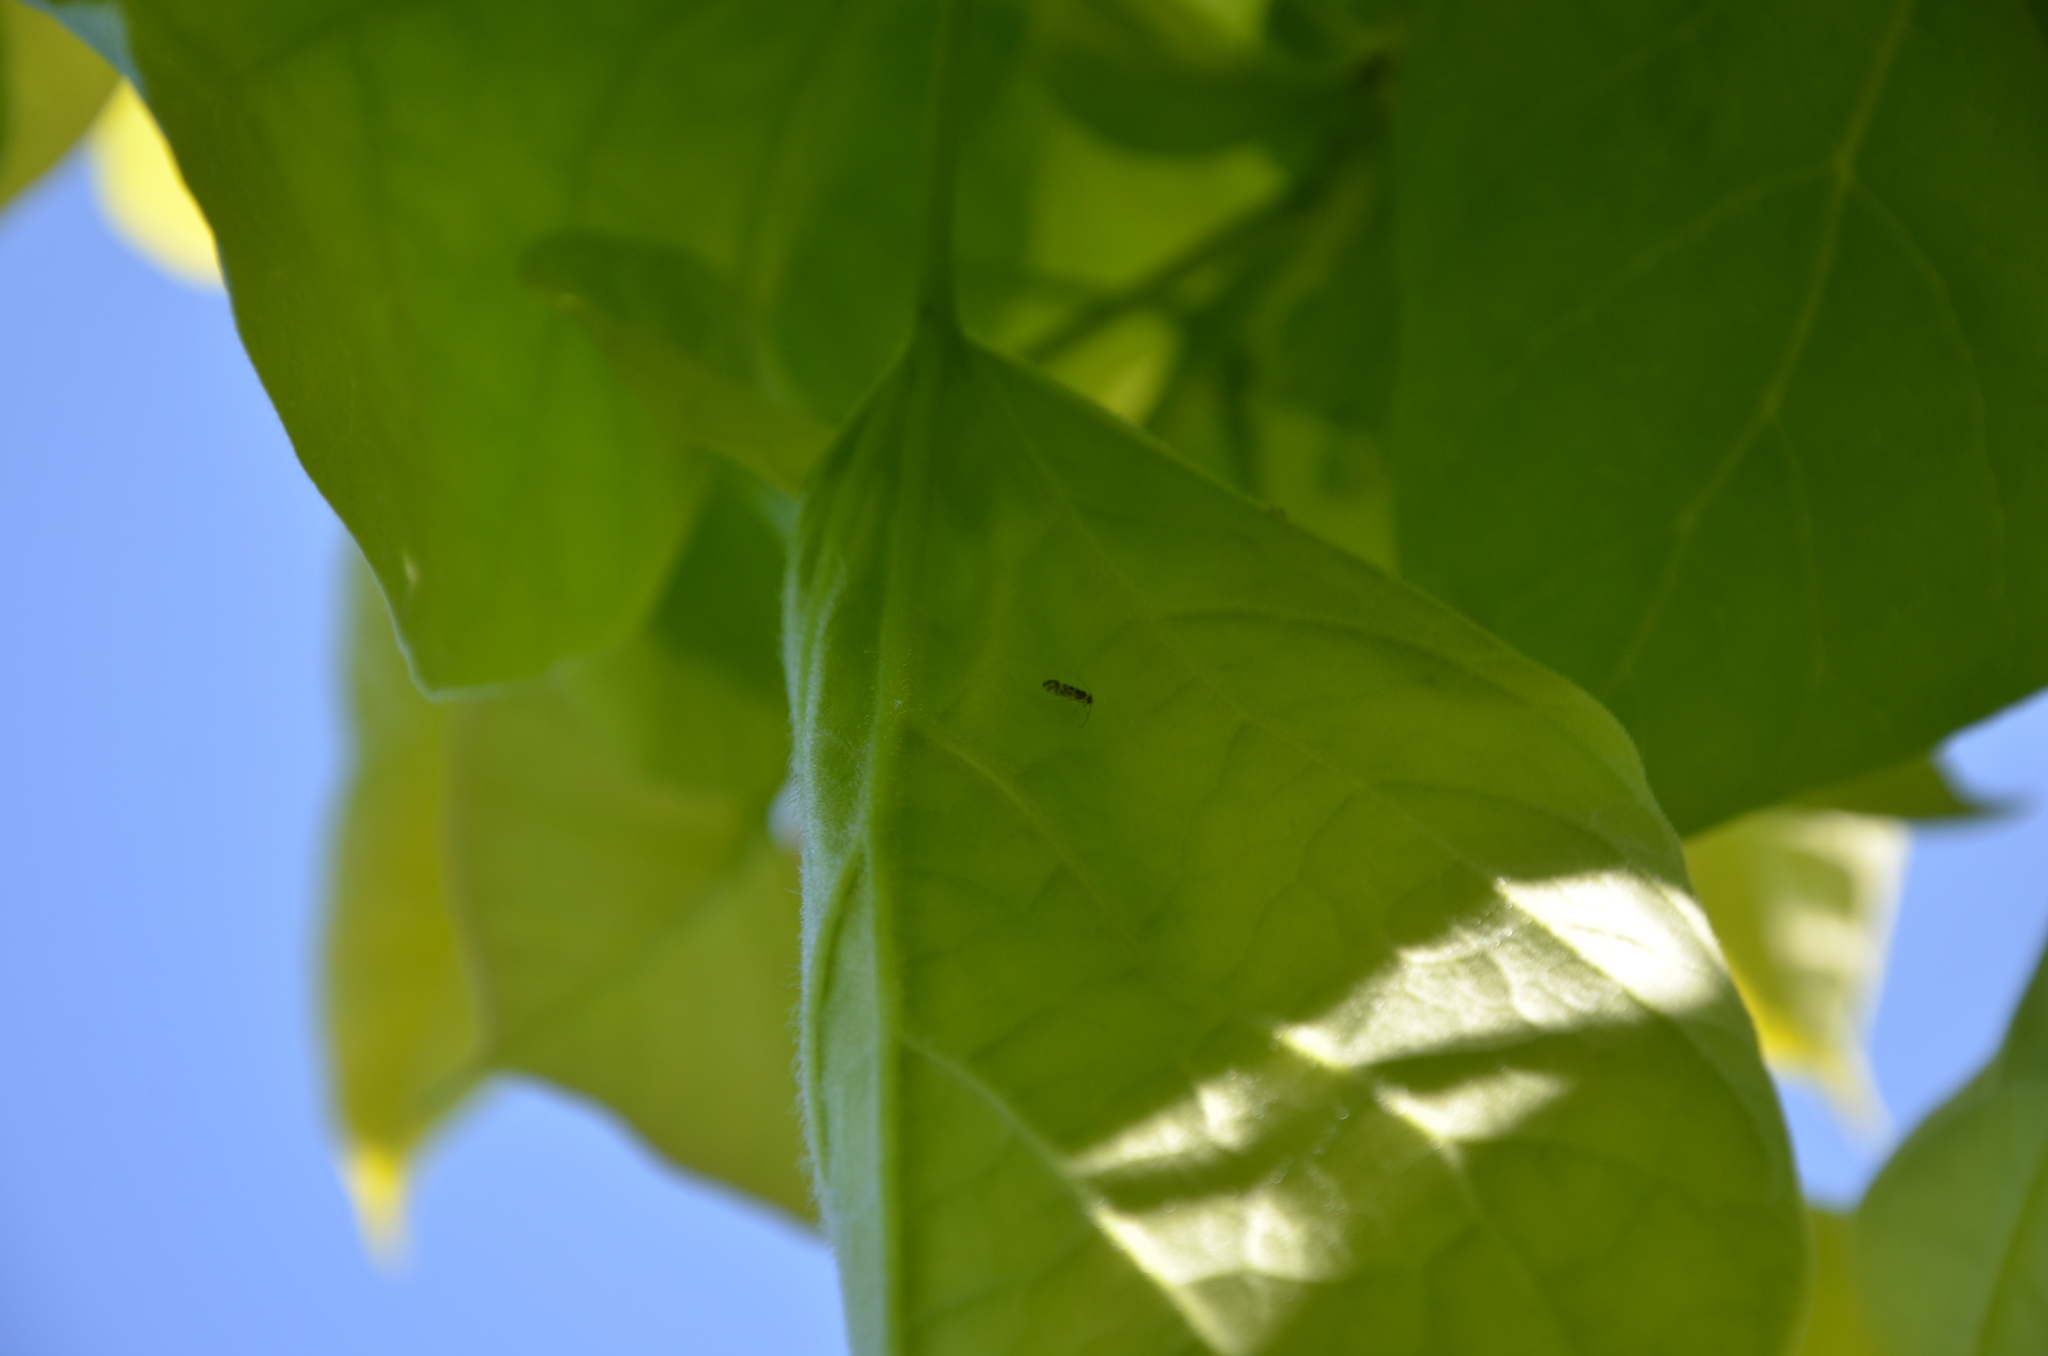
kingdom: Animalia
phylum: Arthropoda
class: Insecta
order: Psocodea
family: Stenopsocidae
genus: Graphopsocus
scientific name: Graphopsocus cruciatus
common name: Lizard bark louse
